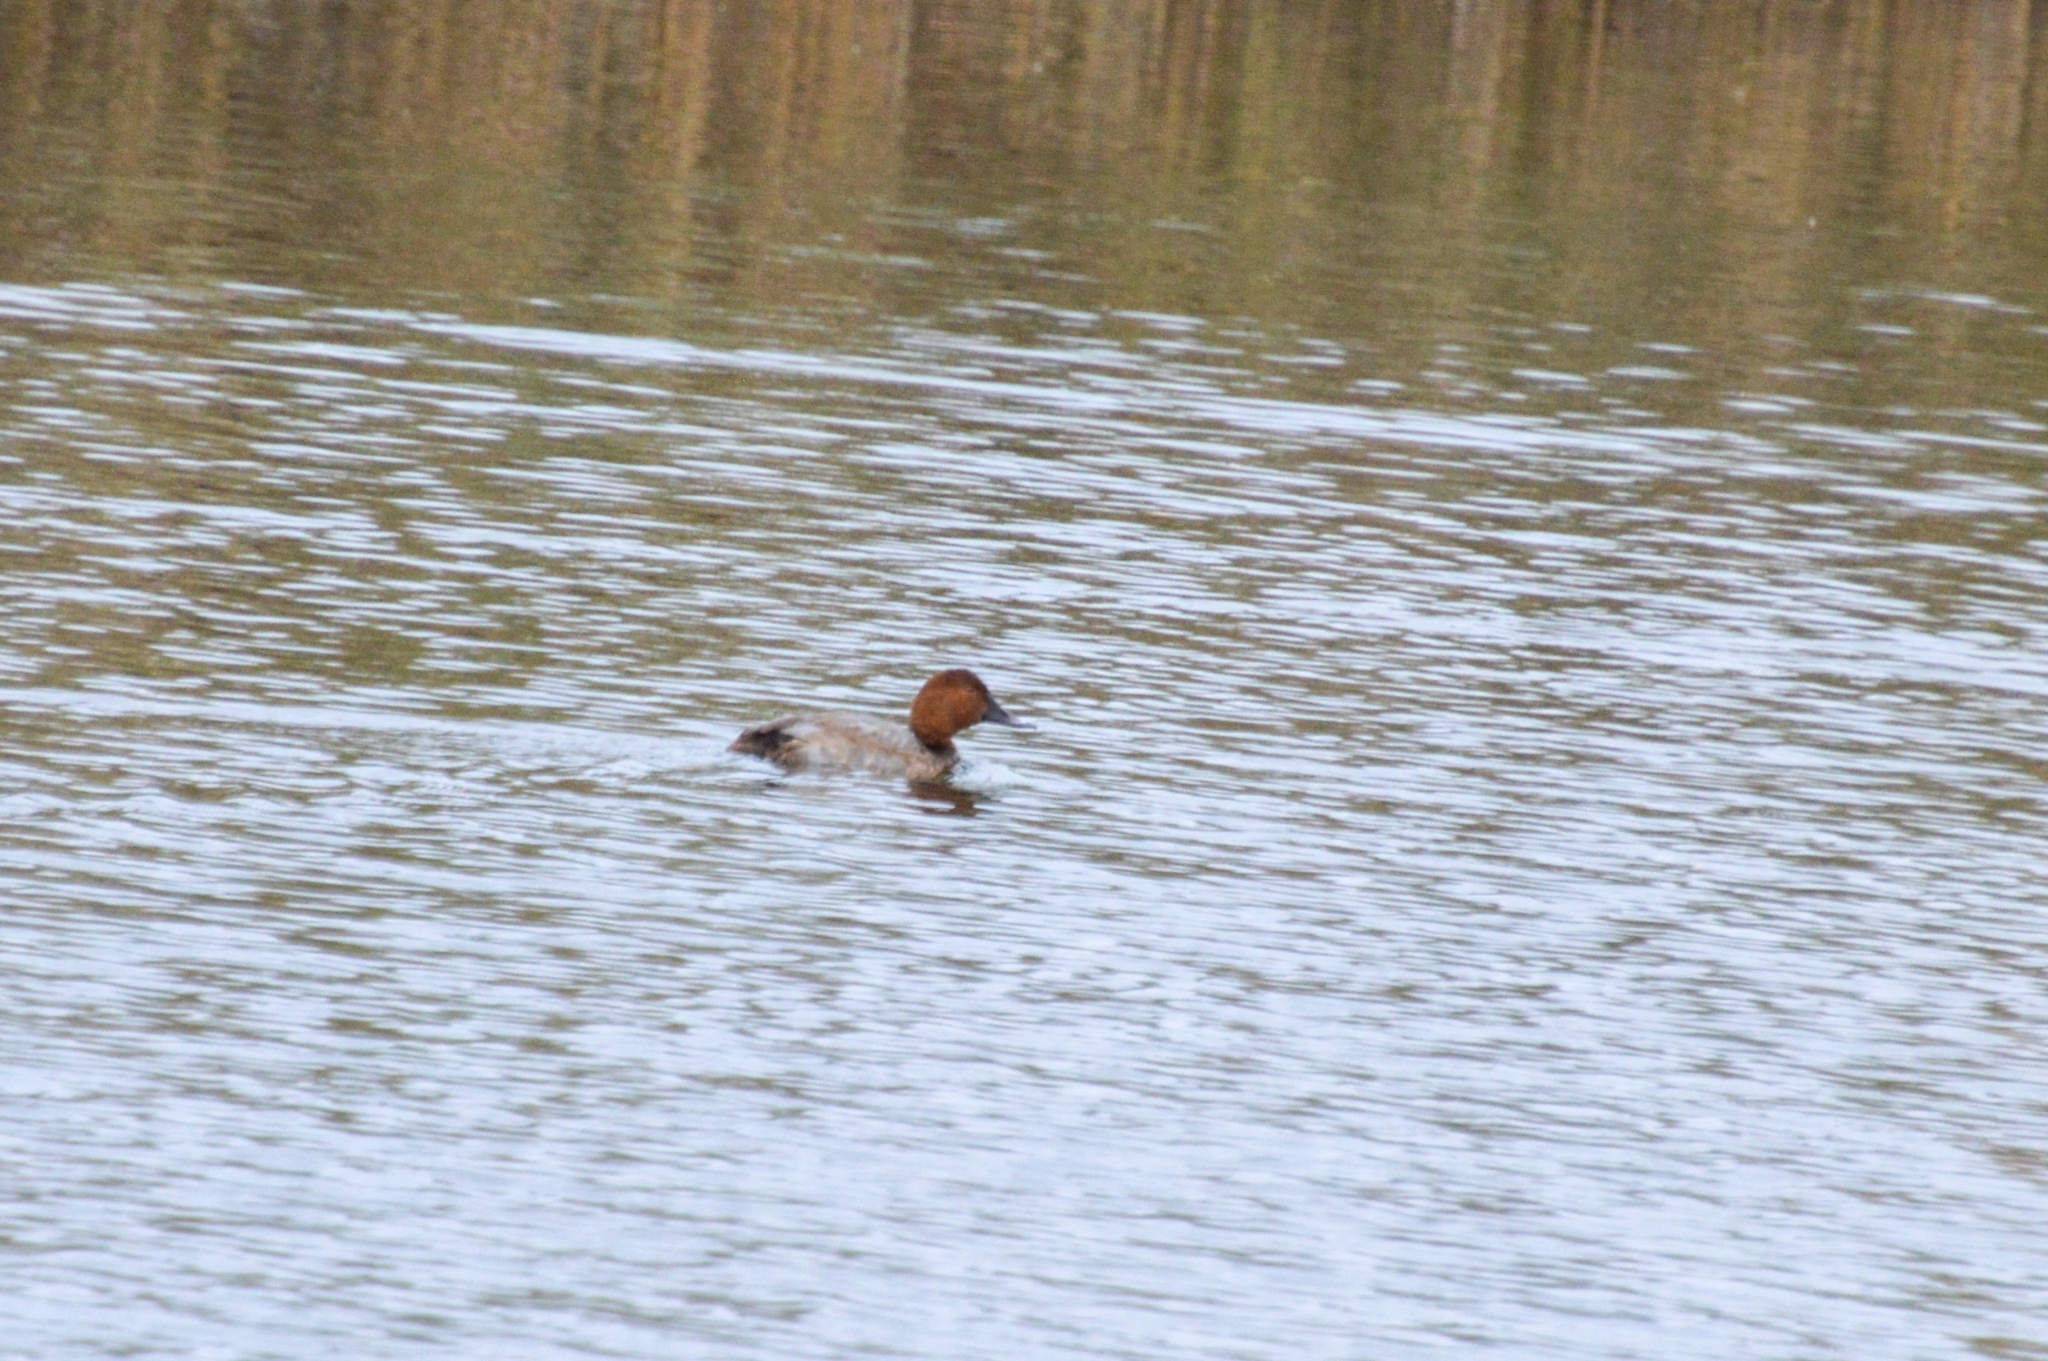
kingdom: Animalia
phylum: Chordata
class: Aves
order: Anseriformes
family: Anatidae
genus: Aythya
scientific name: Aythya ferina
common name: Common pochard
